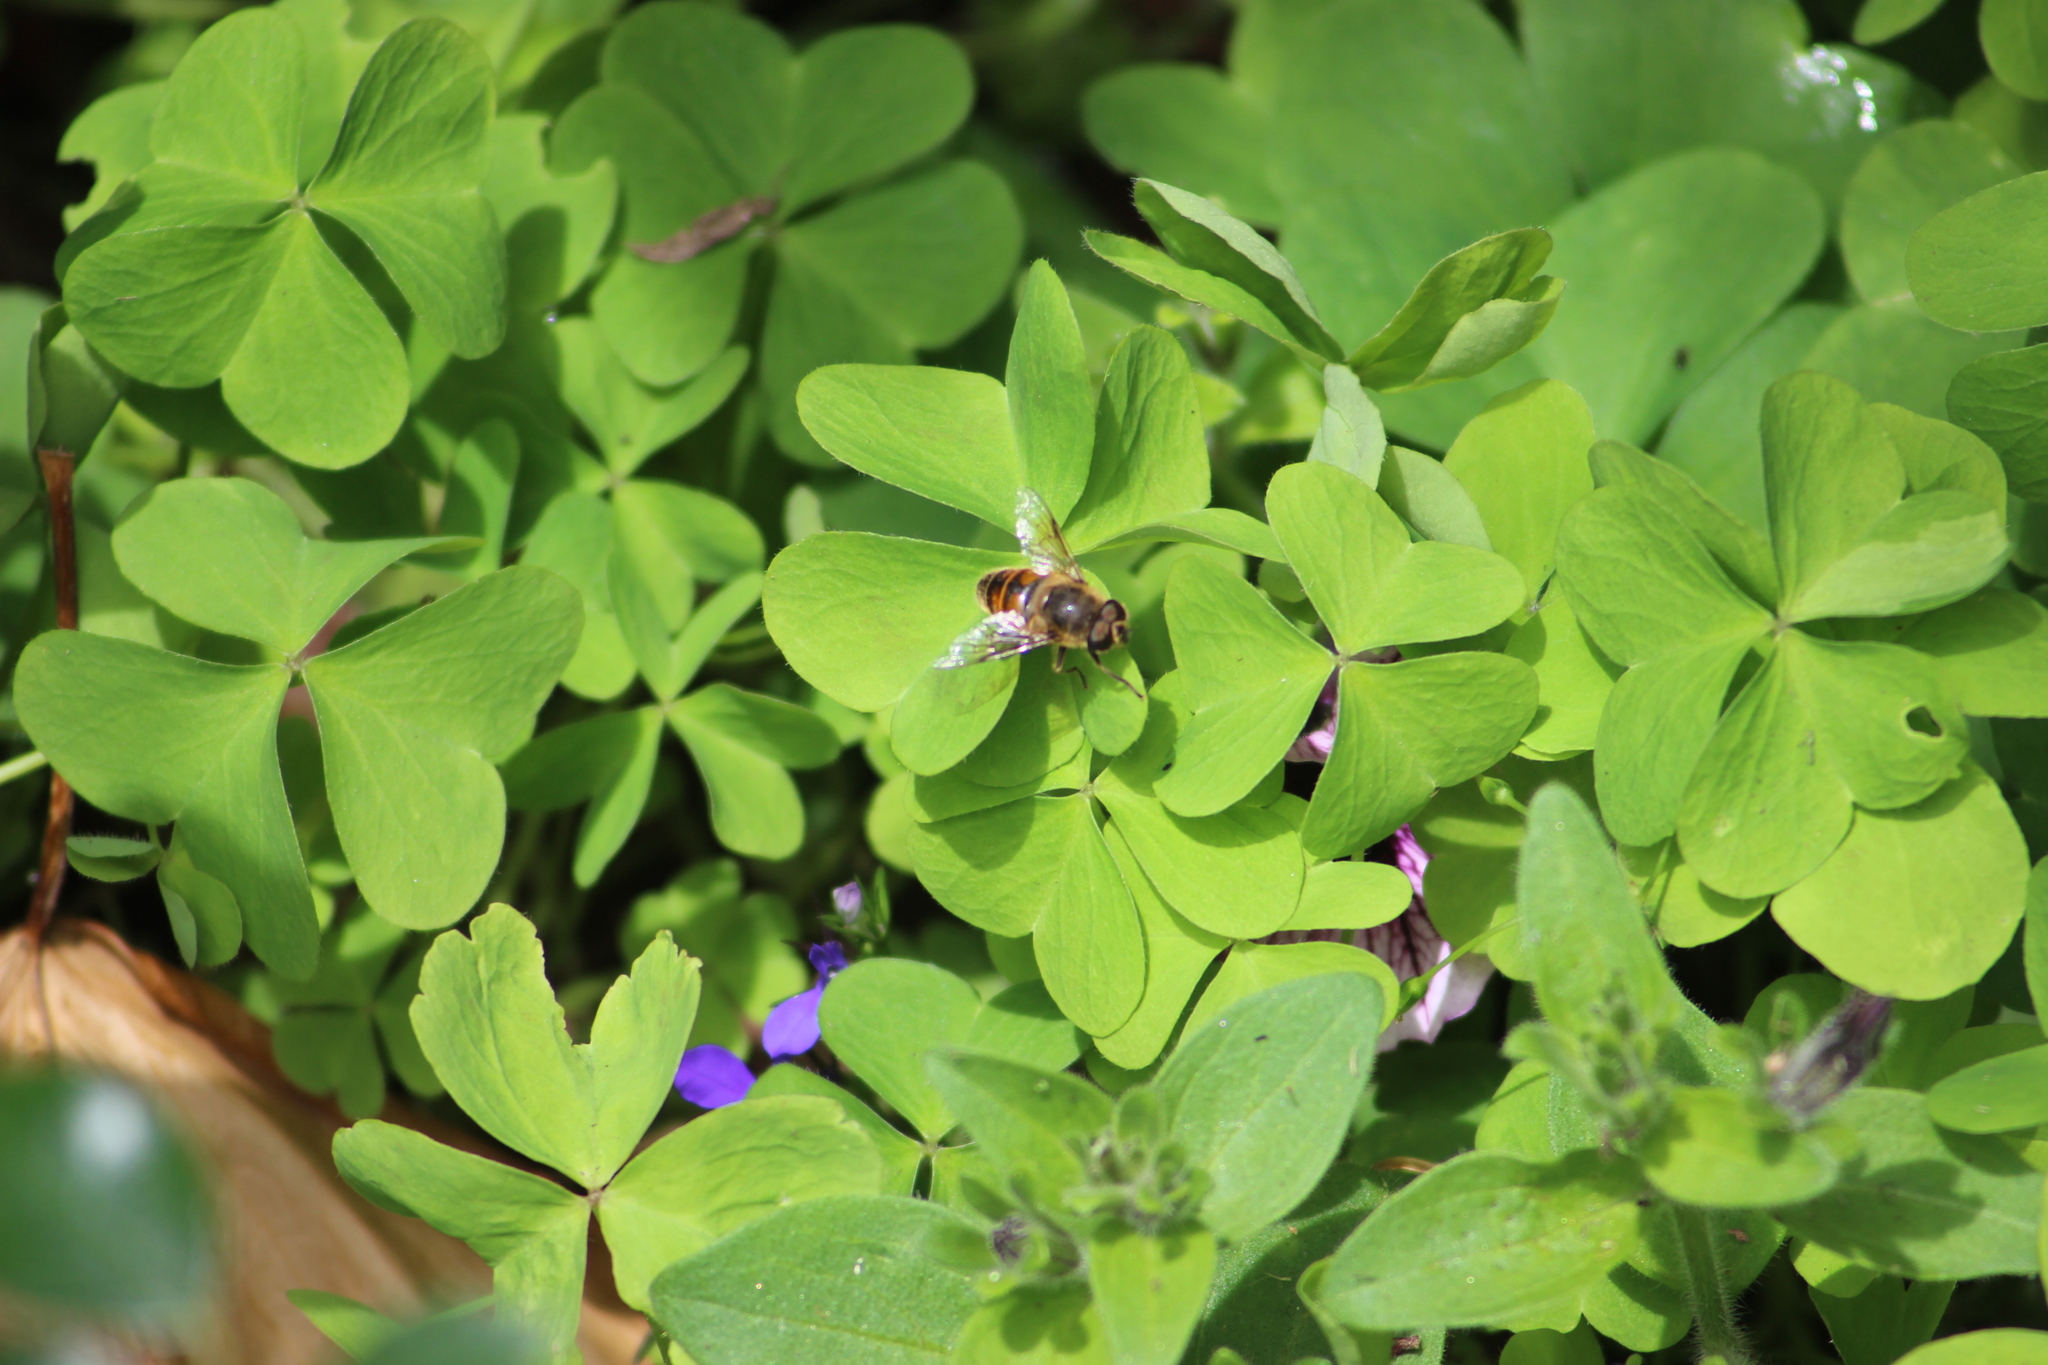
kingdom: Animalia
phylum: Arthropoda
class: Insecta
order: Diptera
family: Syrphidae
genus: Eristalis
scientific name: Eristalis tenax
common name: Drone fly
